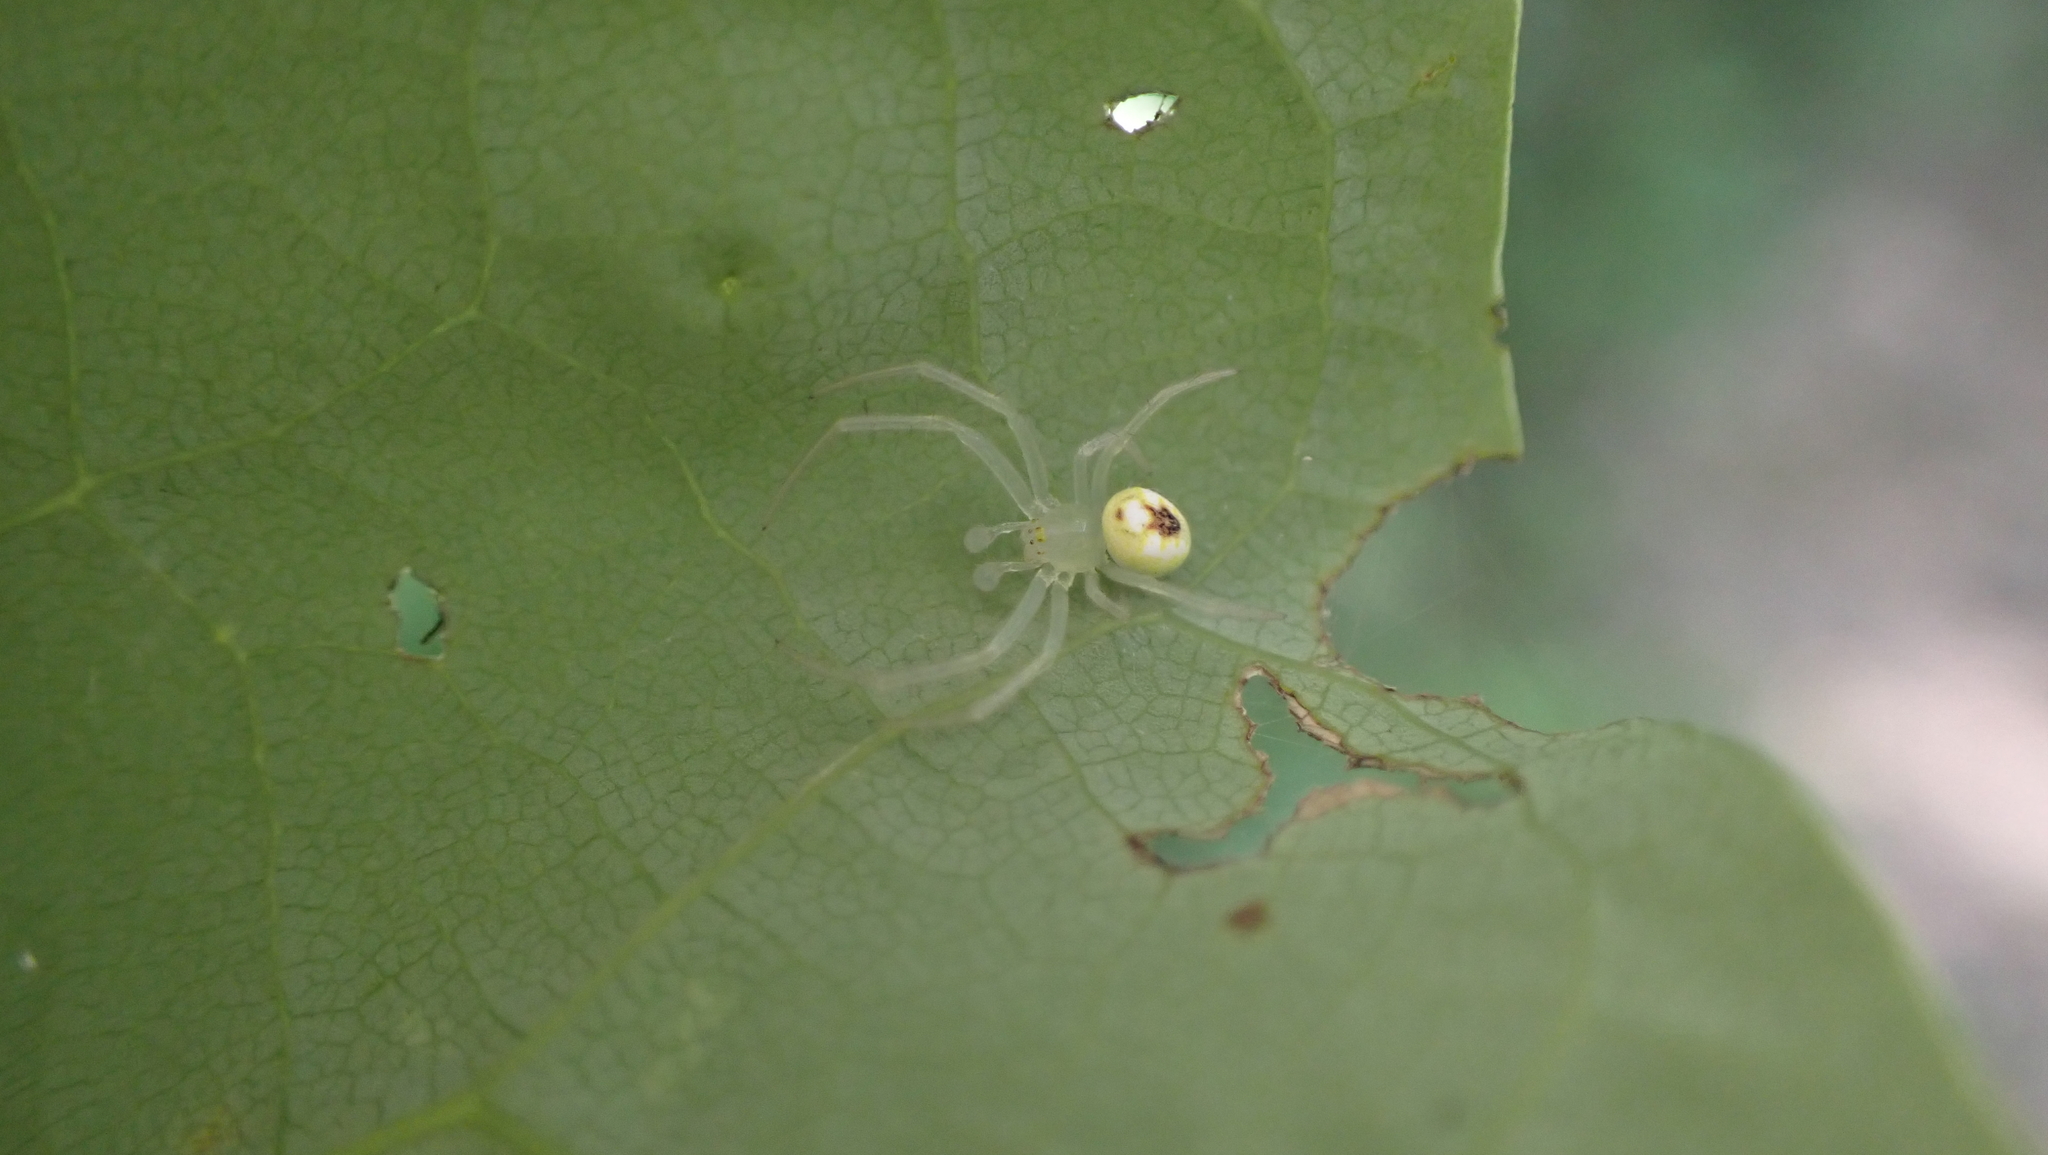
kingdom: Animalia
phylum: Arthropoda
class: Arachnida
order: Araneae
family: Araneidae
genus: Araneus
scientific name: Araneus niveus
